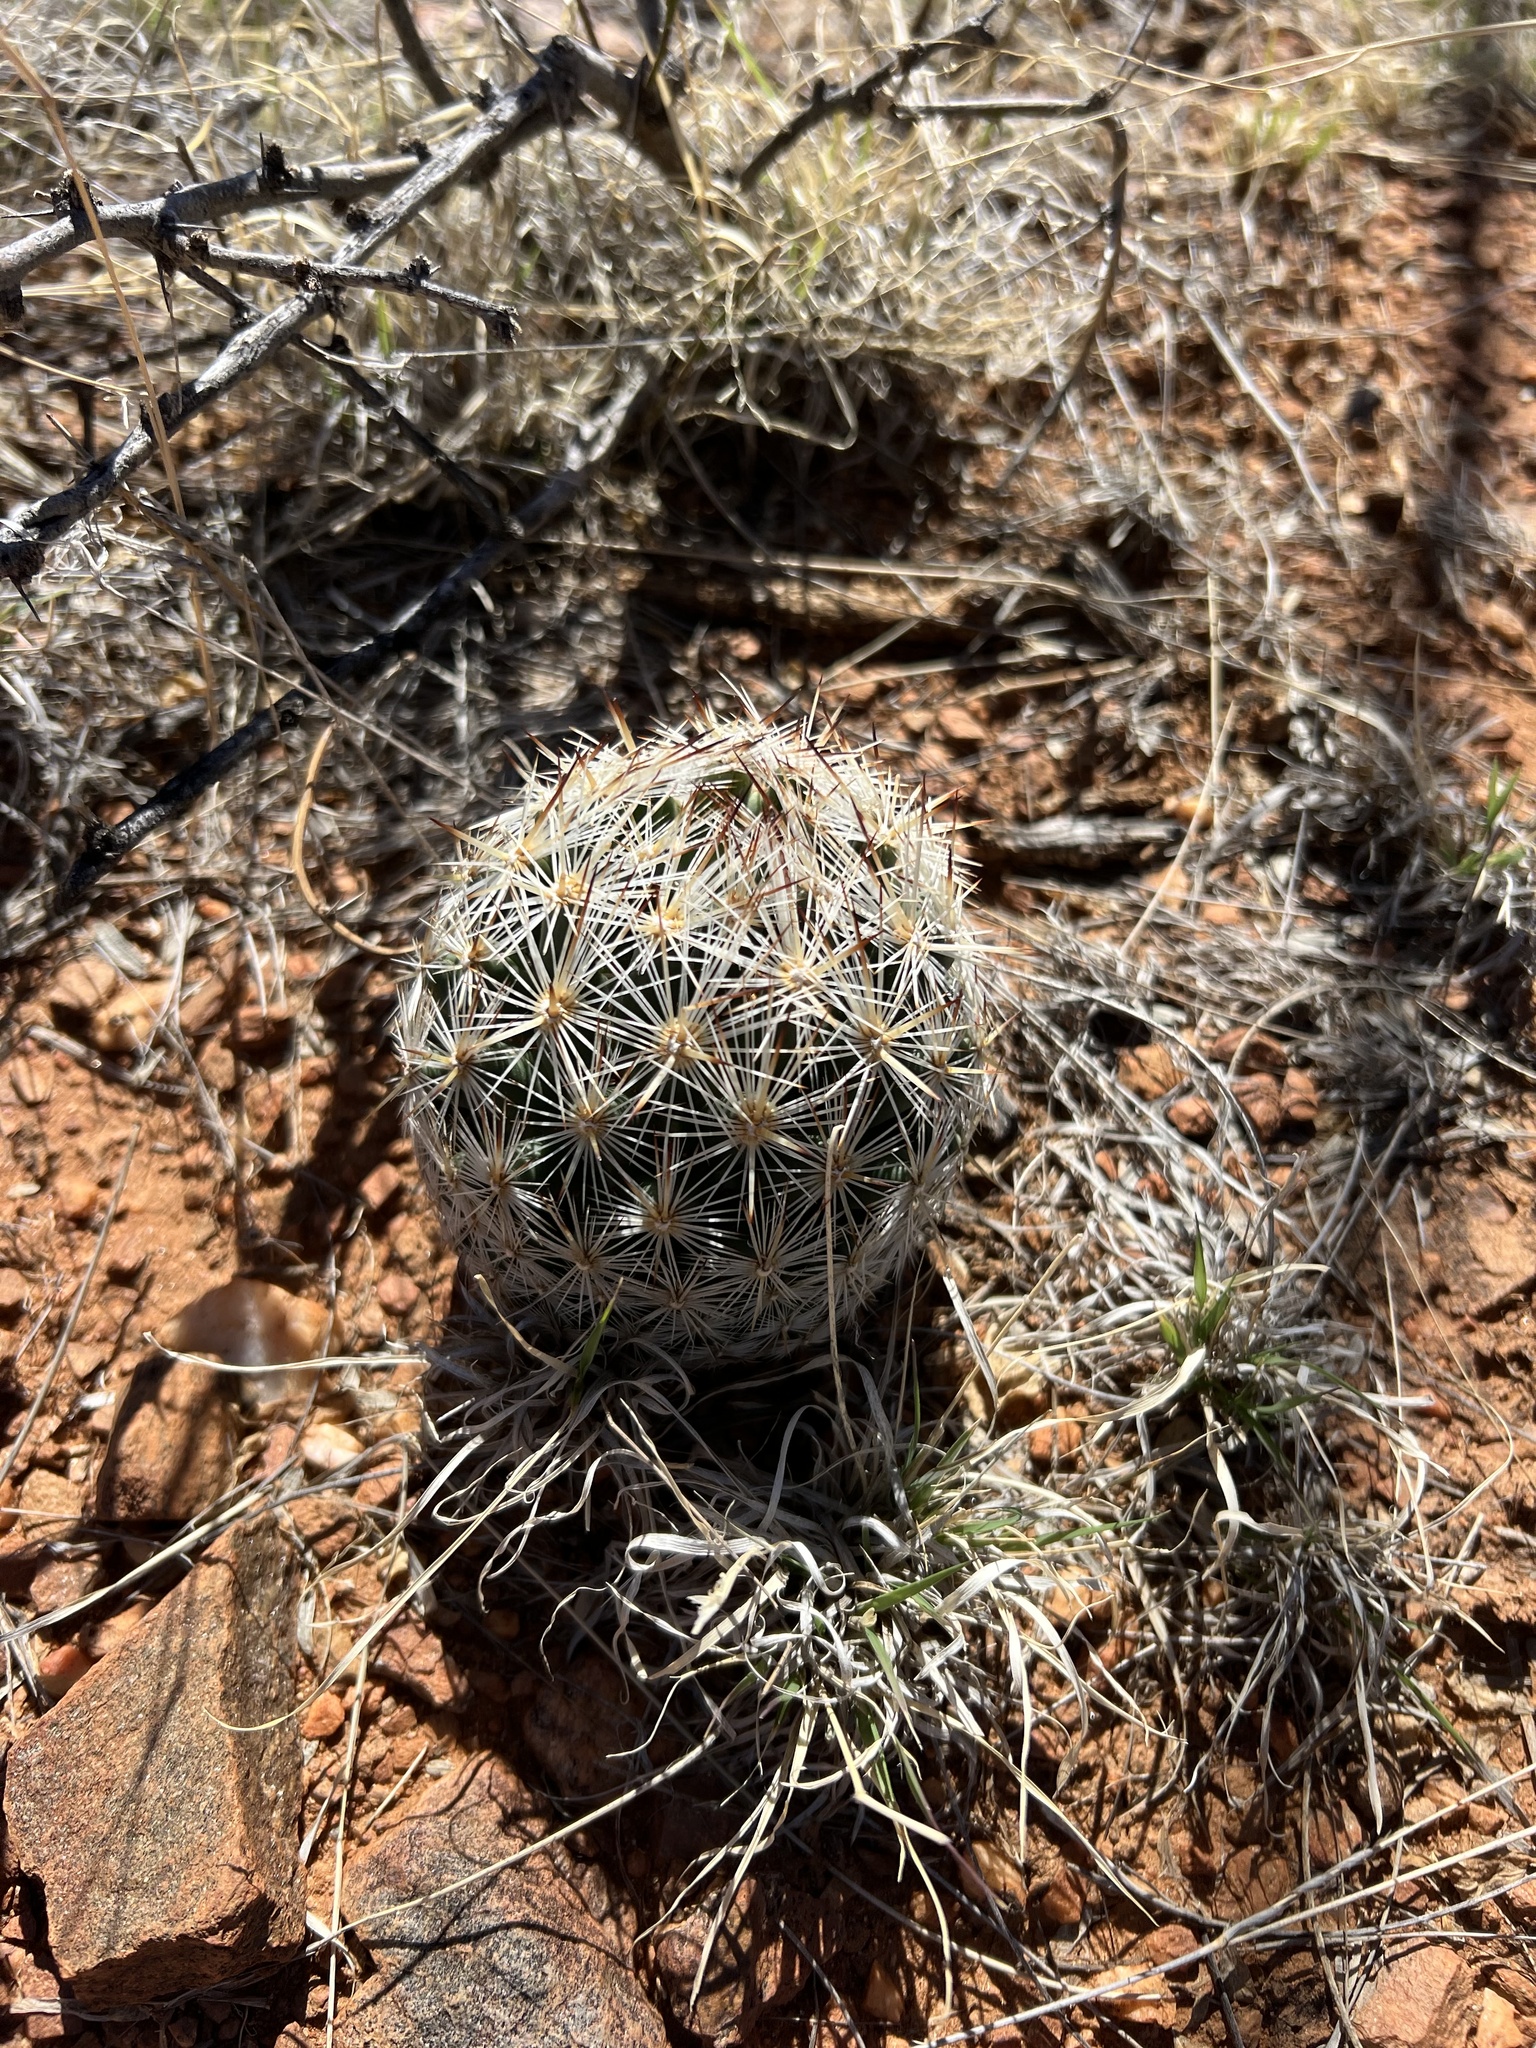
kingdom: Plantae
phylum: Tracheophyta
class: Magnoliopsida
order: Caryophyllales
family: Cactaceae
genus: Pelecyphora
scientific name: Pelecyphora vivipara
